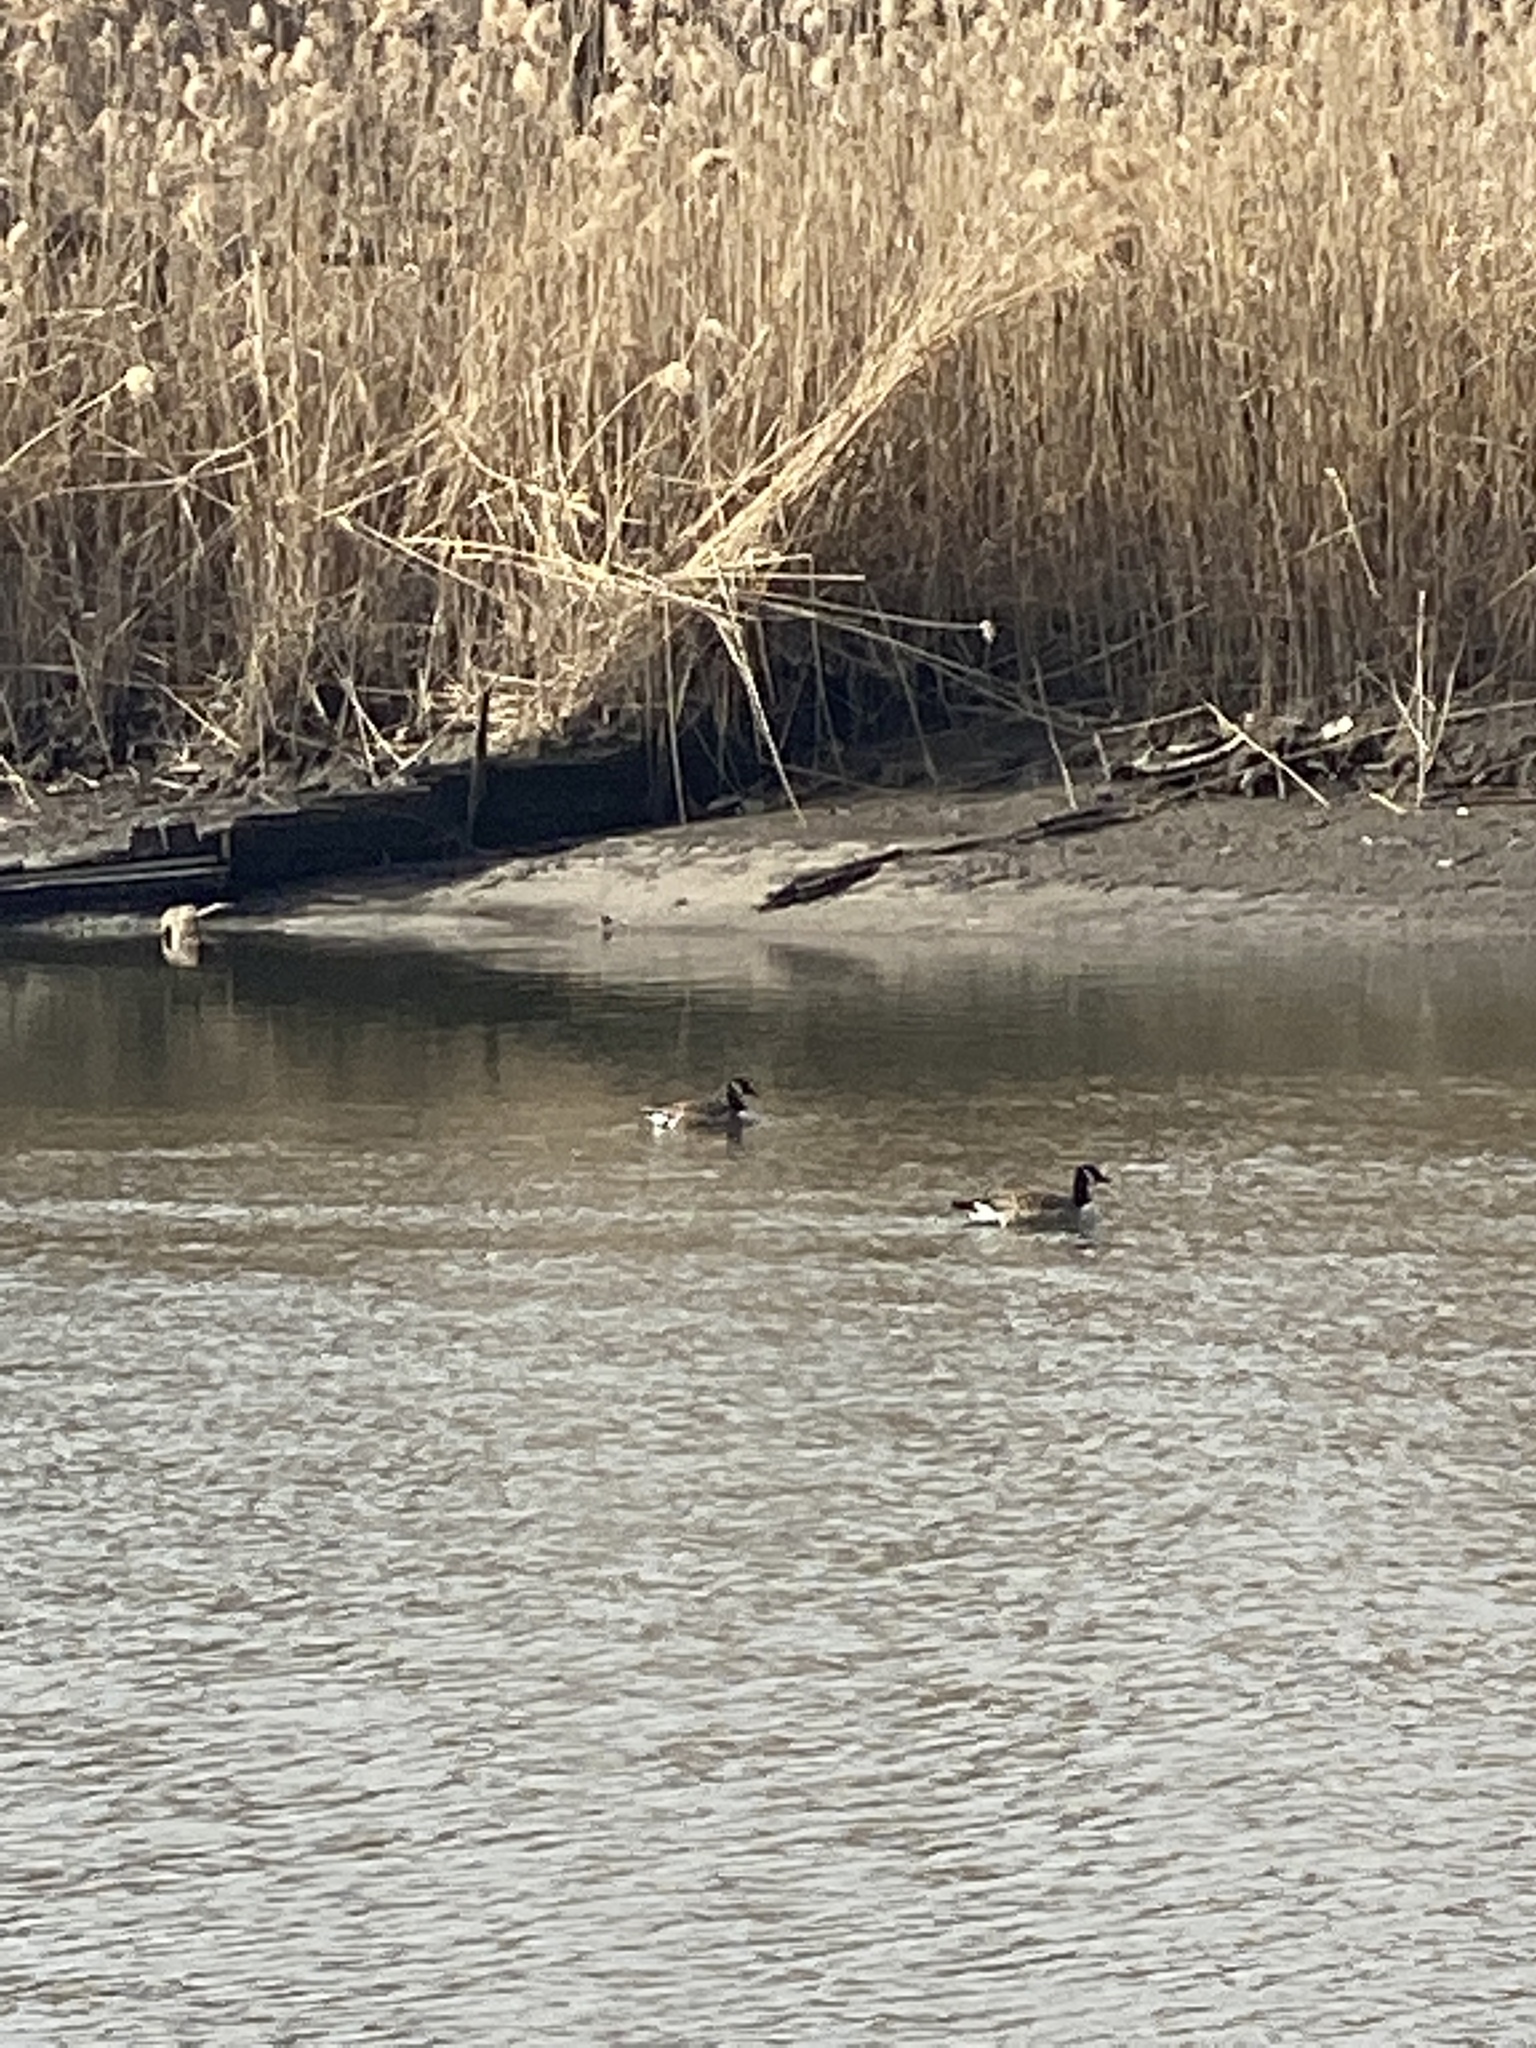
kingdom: Animalia
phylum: Chordata
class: Aves
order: Anseriformes
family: Anatidae
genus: Branta
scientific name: Branta canadensis
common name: Canada goose
